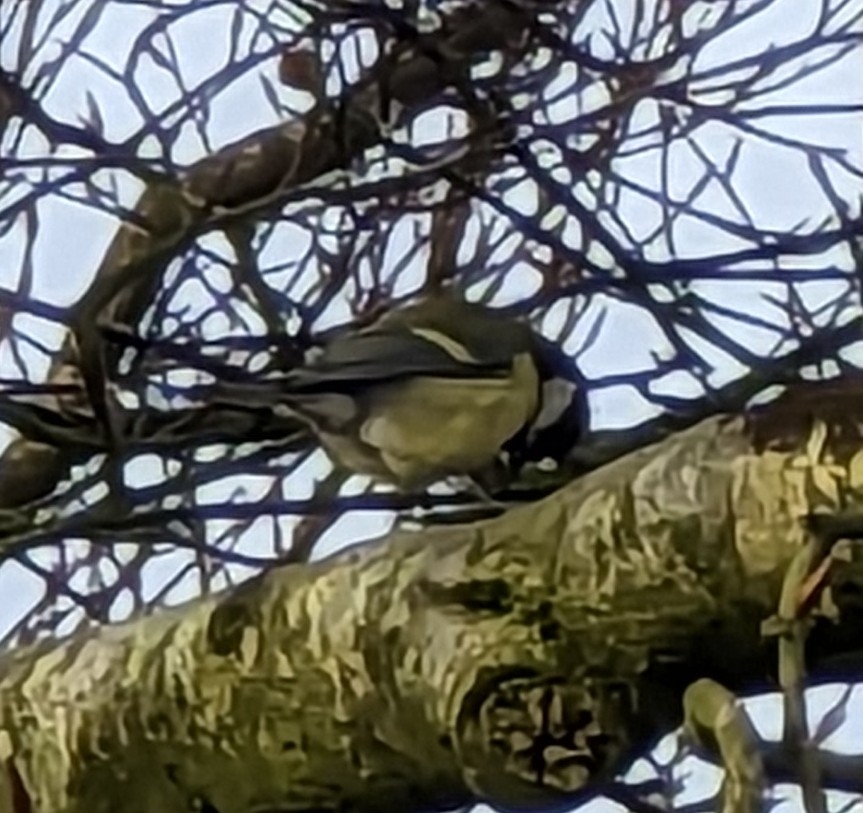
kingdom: Animalia
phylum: Chordata
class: Aves
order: Passeriformes
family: Paridae
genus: Parus
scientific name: Parus major
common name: Great tit
